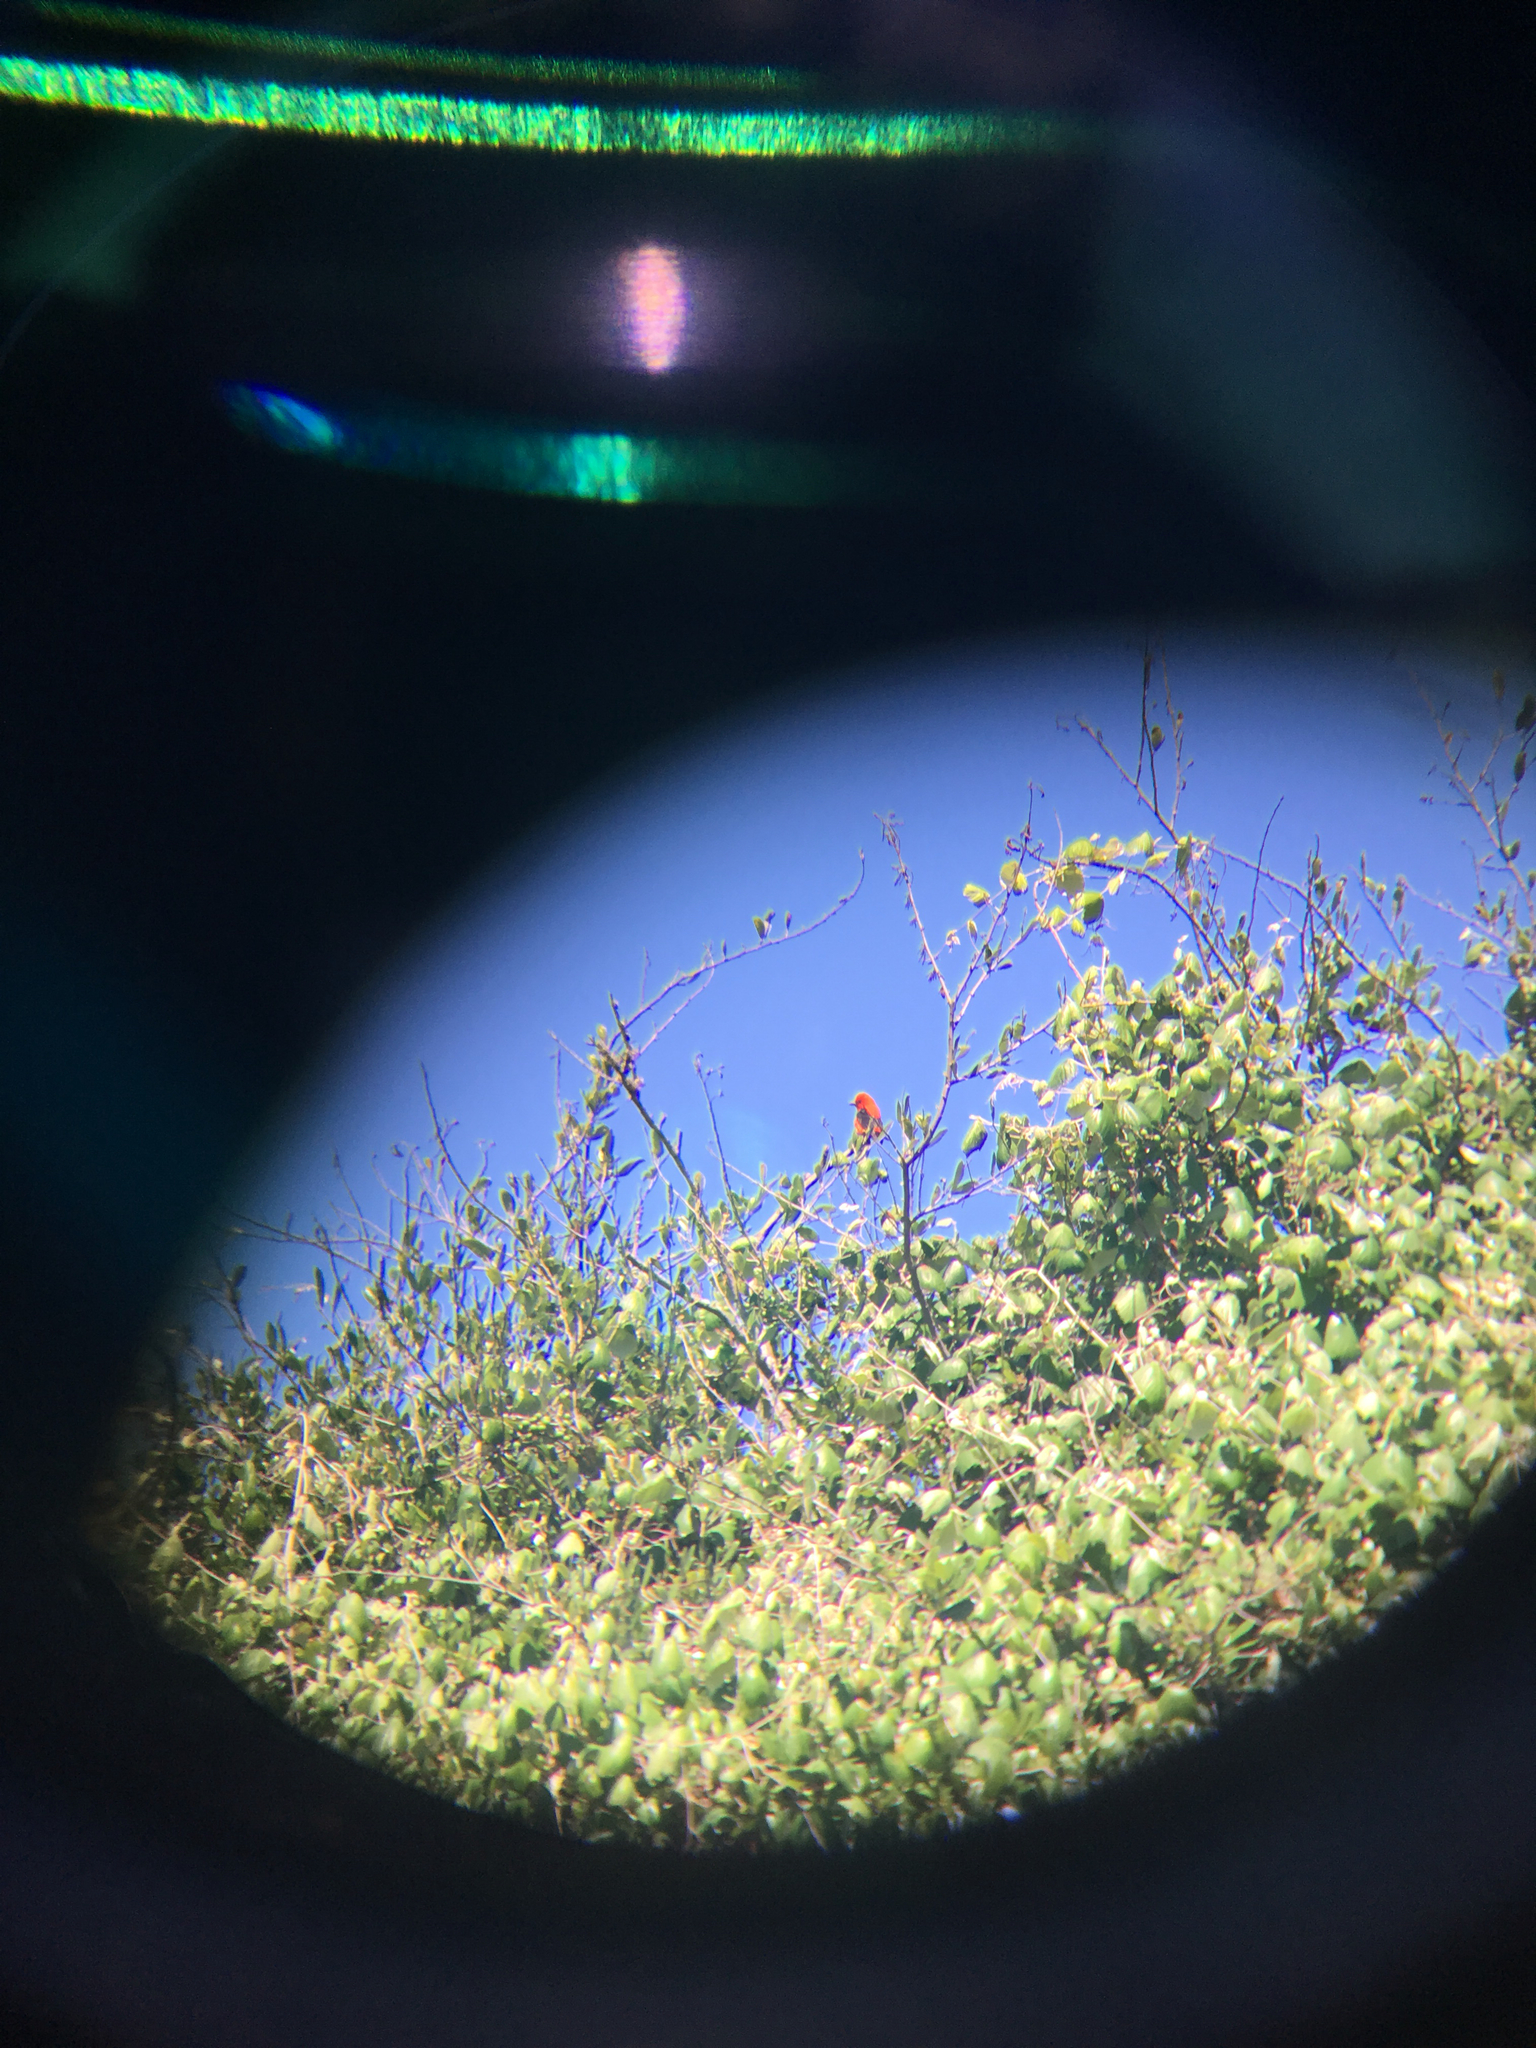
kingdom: Animalia
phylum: Chordata
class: Aves
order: Passeriformes
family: Cardinalidae
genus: Piranga
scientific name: Piranga olivacea
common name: Scarlet tanager
